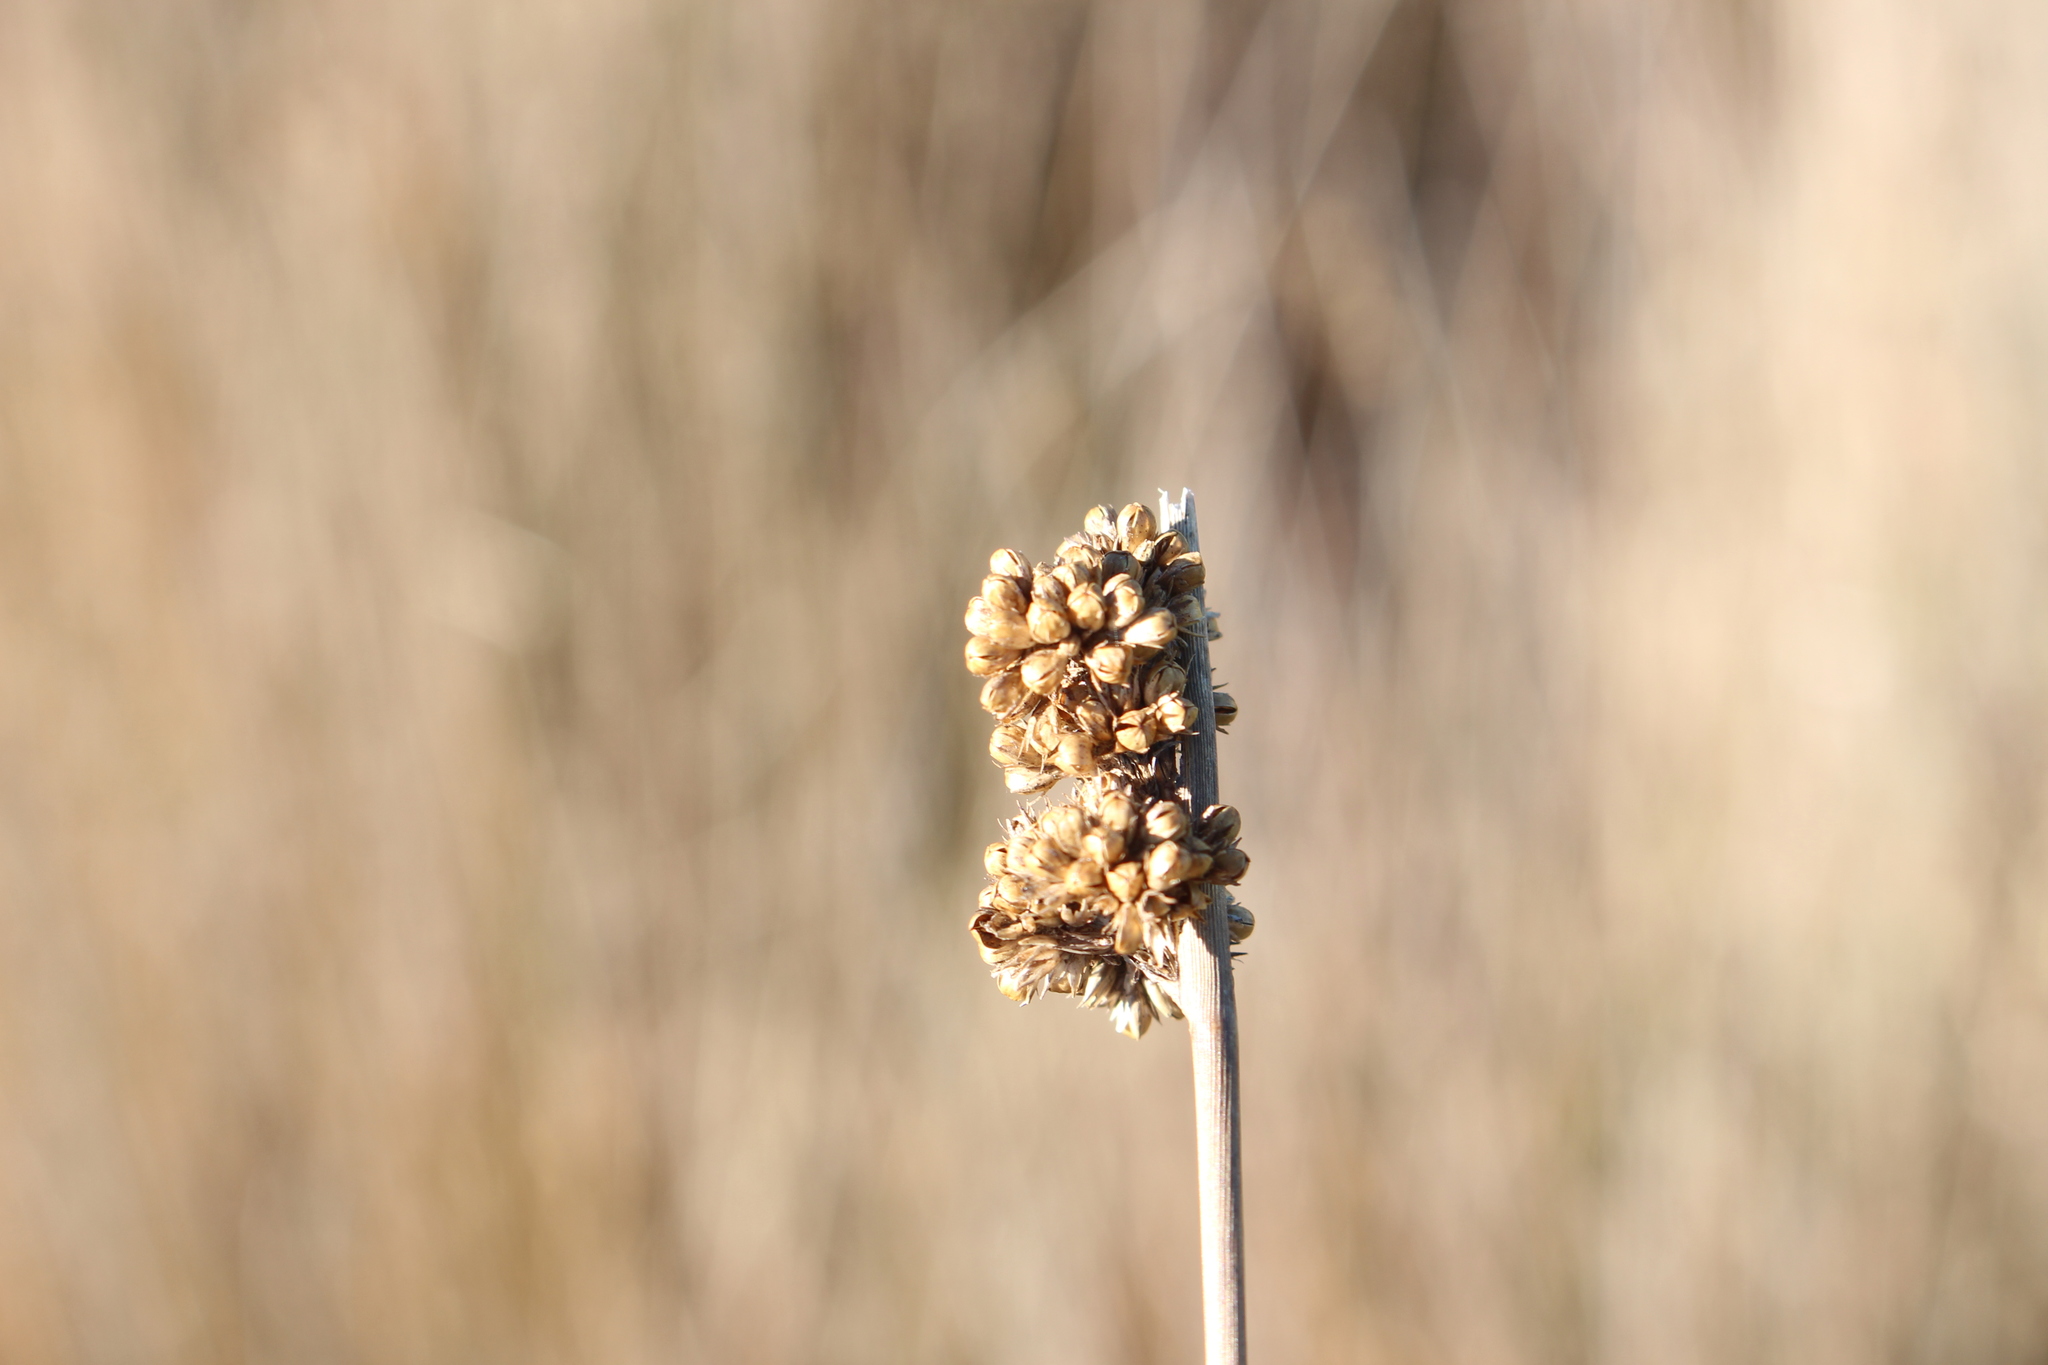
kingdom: Plantae
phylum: Tracheophyta
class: Liliopsida
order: Poales
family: Juncaceae
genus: Juncus
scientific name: Juncus australis
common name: Austral rush
